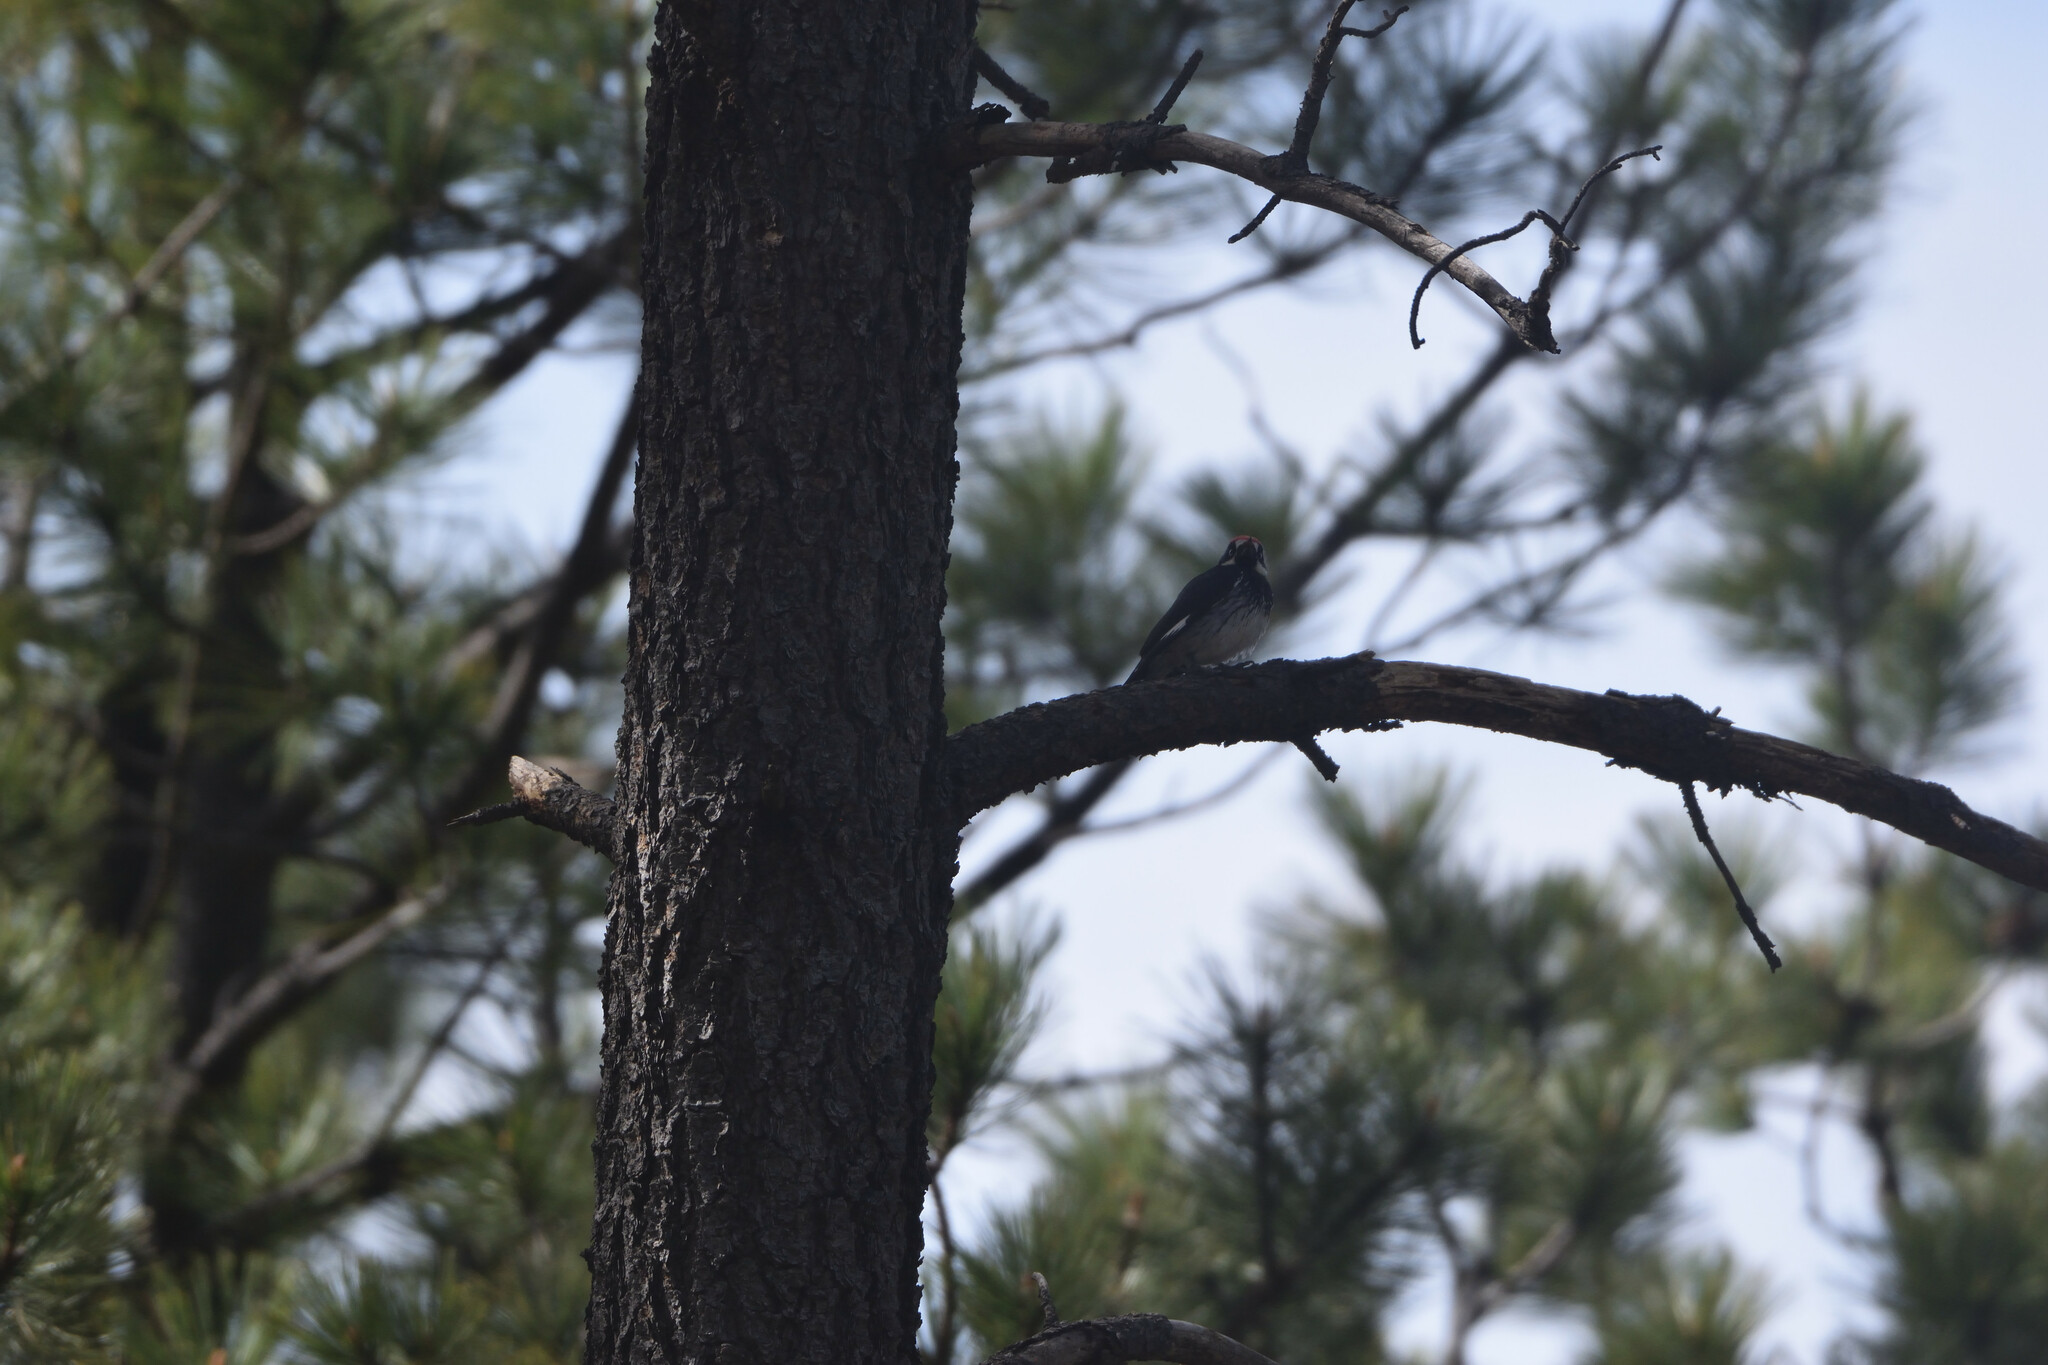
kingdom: Animalia
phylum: Chordata
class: Aves
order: Piciformes
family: Picidae
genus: Melanerpes
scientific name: Melanerpes formicivorus
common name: Acorn woodpecker
